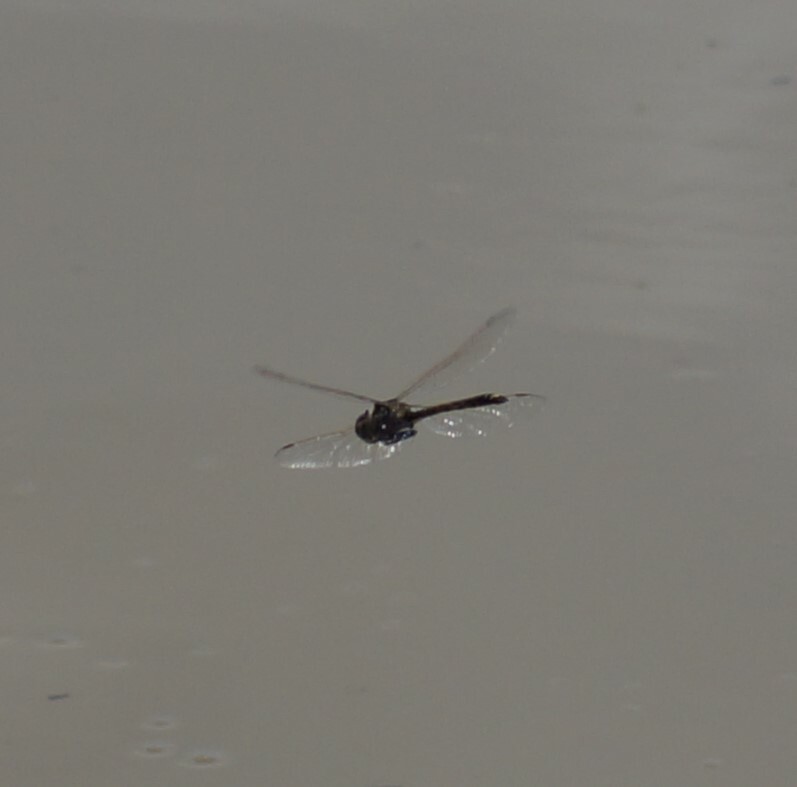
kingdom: Animalia
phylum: Arthropoda
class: Insecta
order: Odonata
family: Corduliidae
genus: Hemicordulia
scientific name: Hemicordulia tau
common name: Tau emerald
